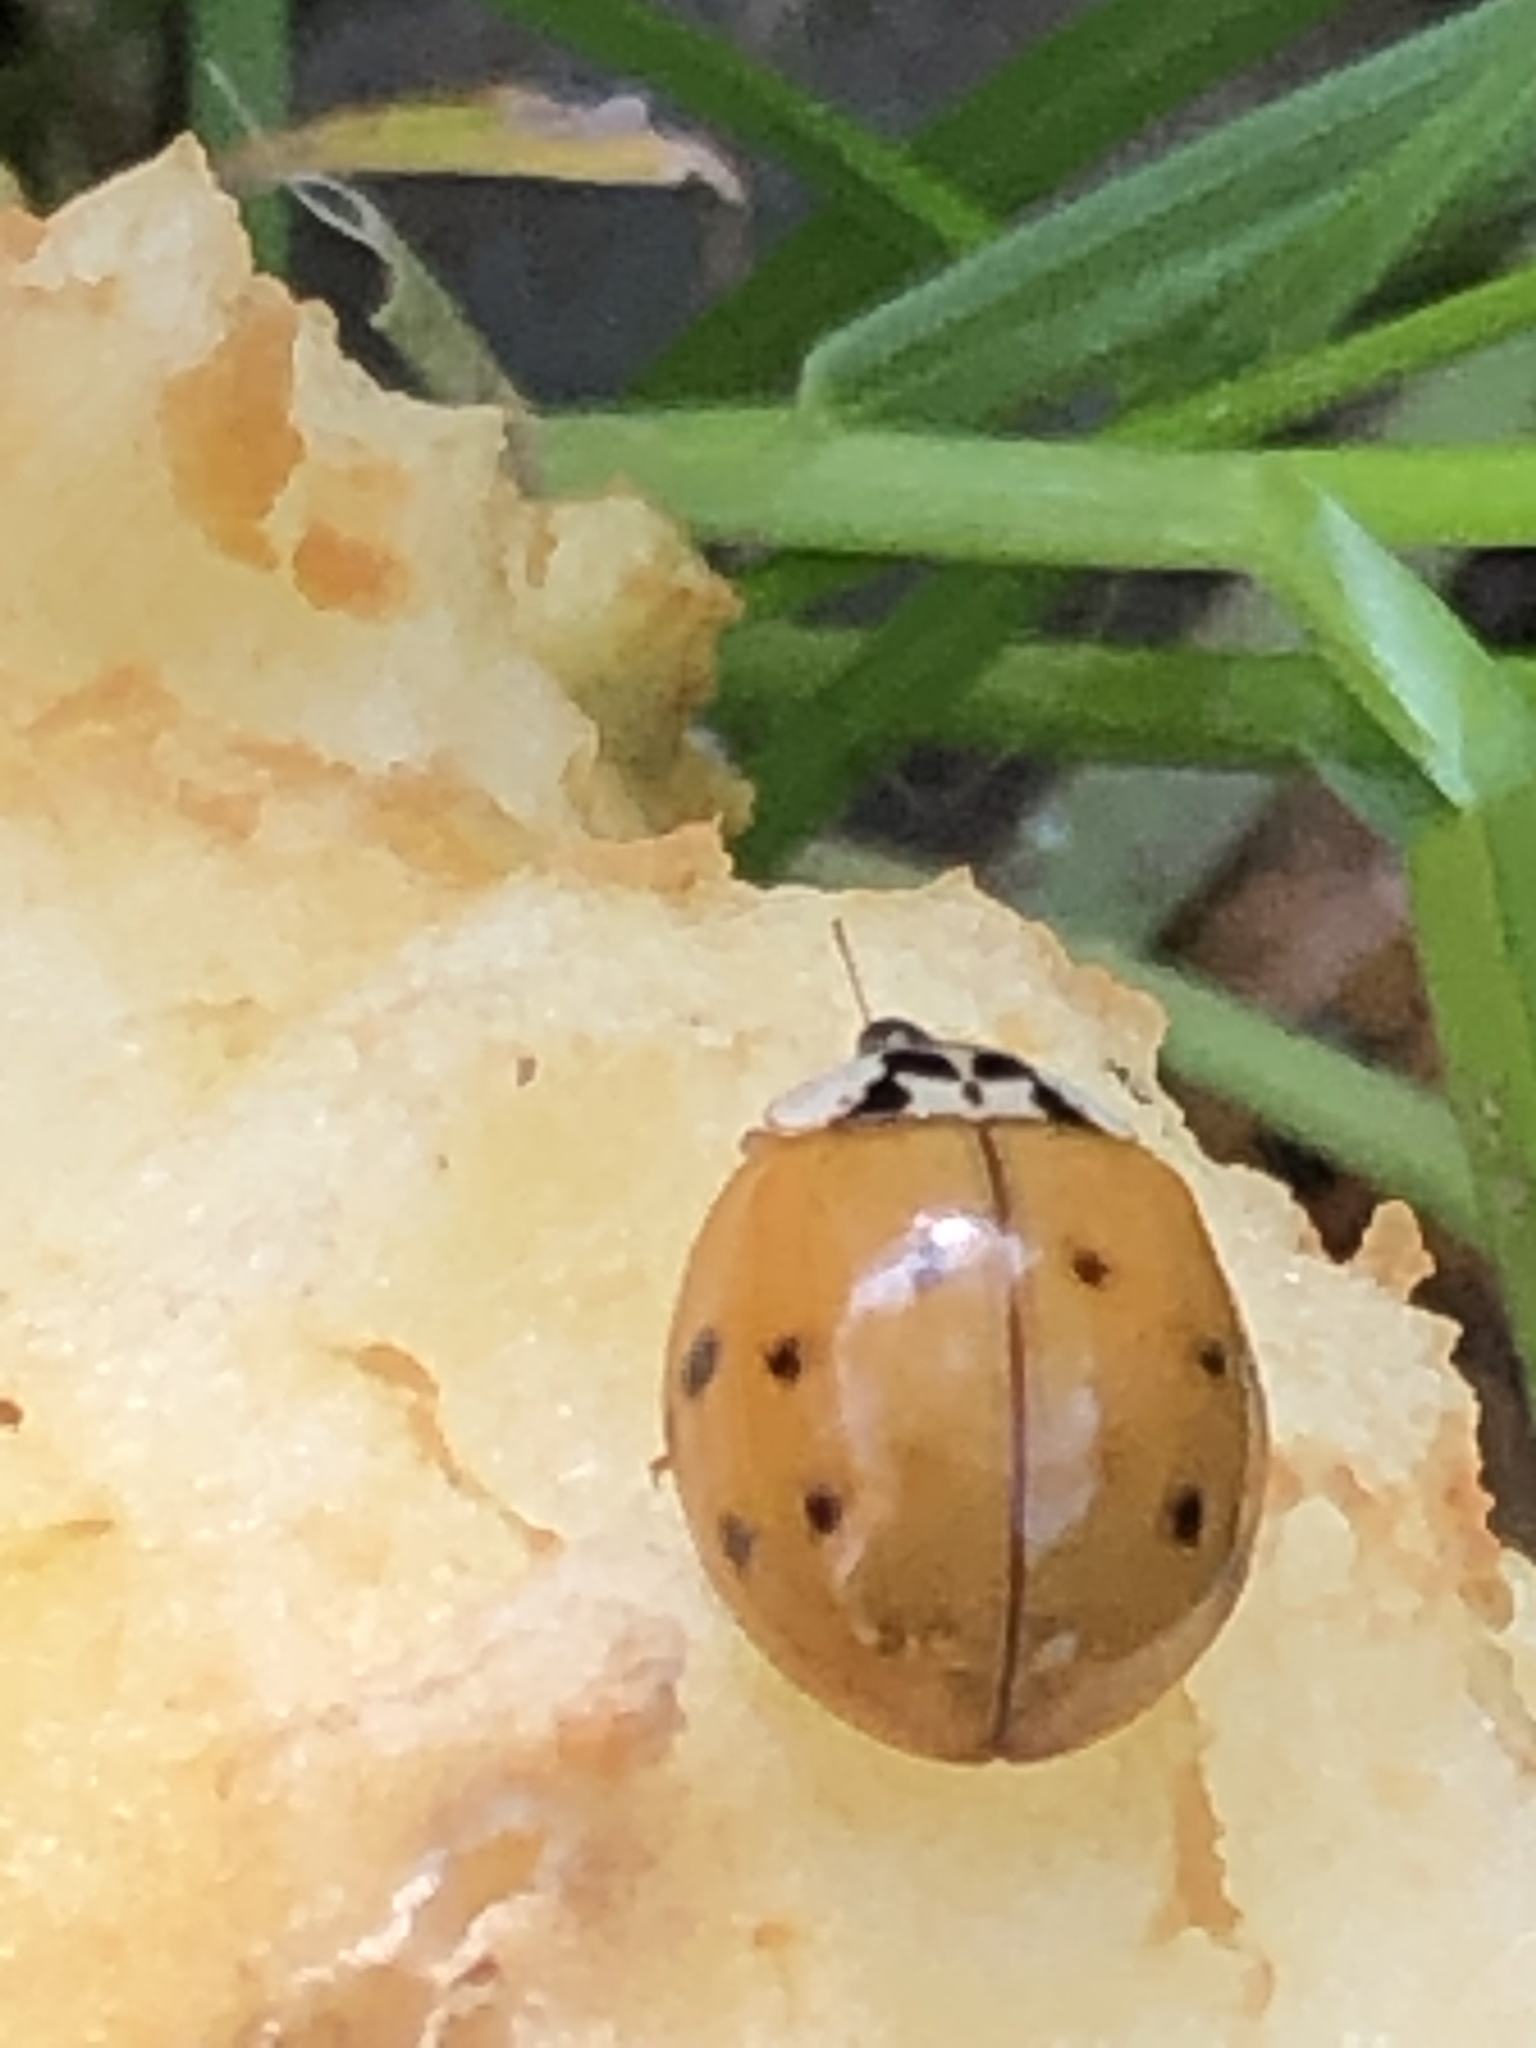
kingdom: Animalia
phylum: Arthropoda
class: Insecta
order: Coleoptera
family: Coccinellidae
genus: Harmonia
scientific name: Harmonia axyridis
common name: Harlequin ladybird
